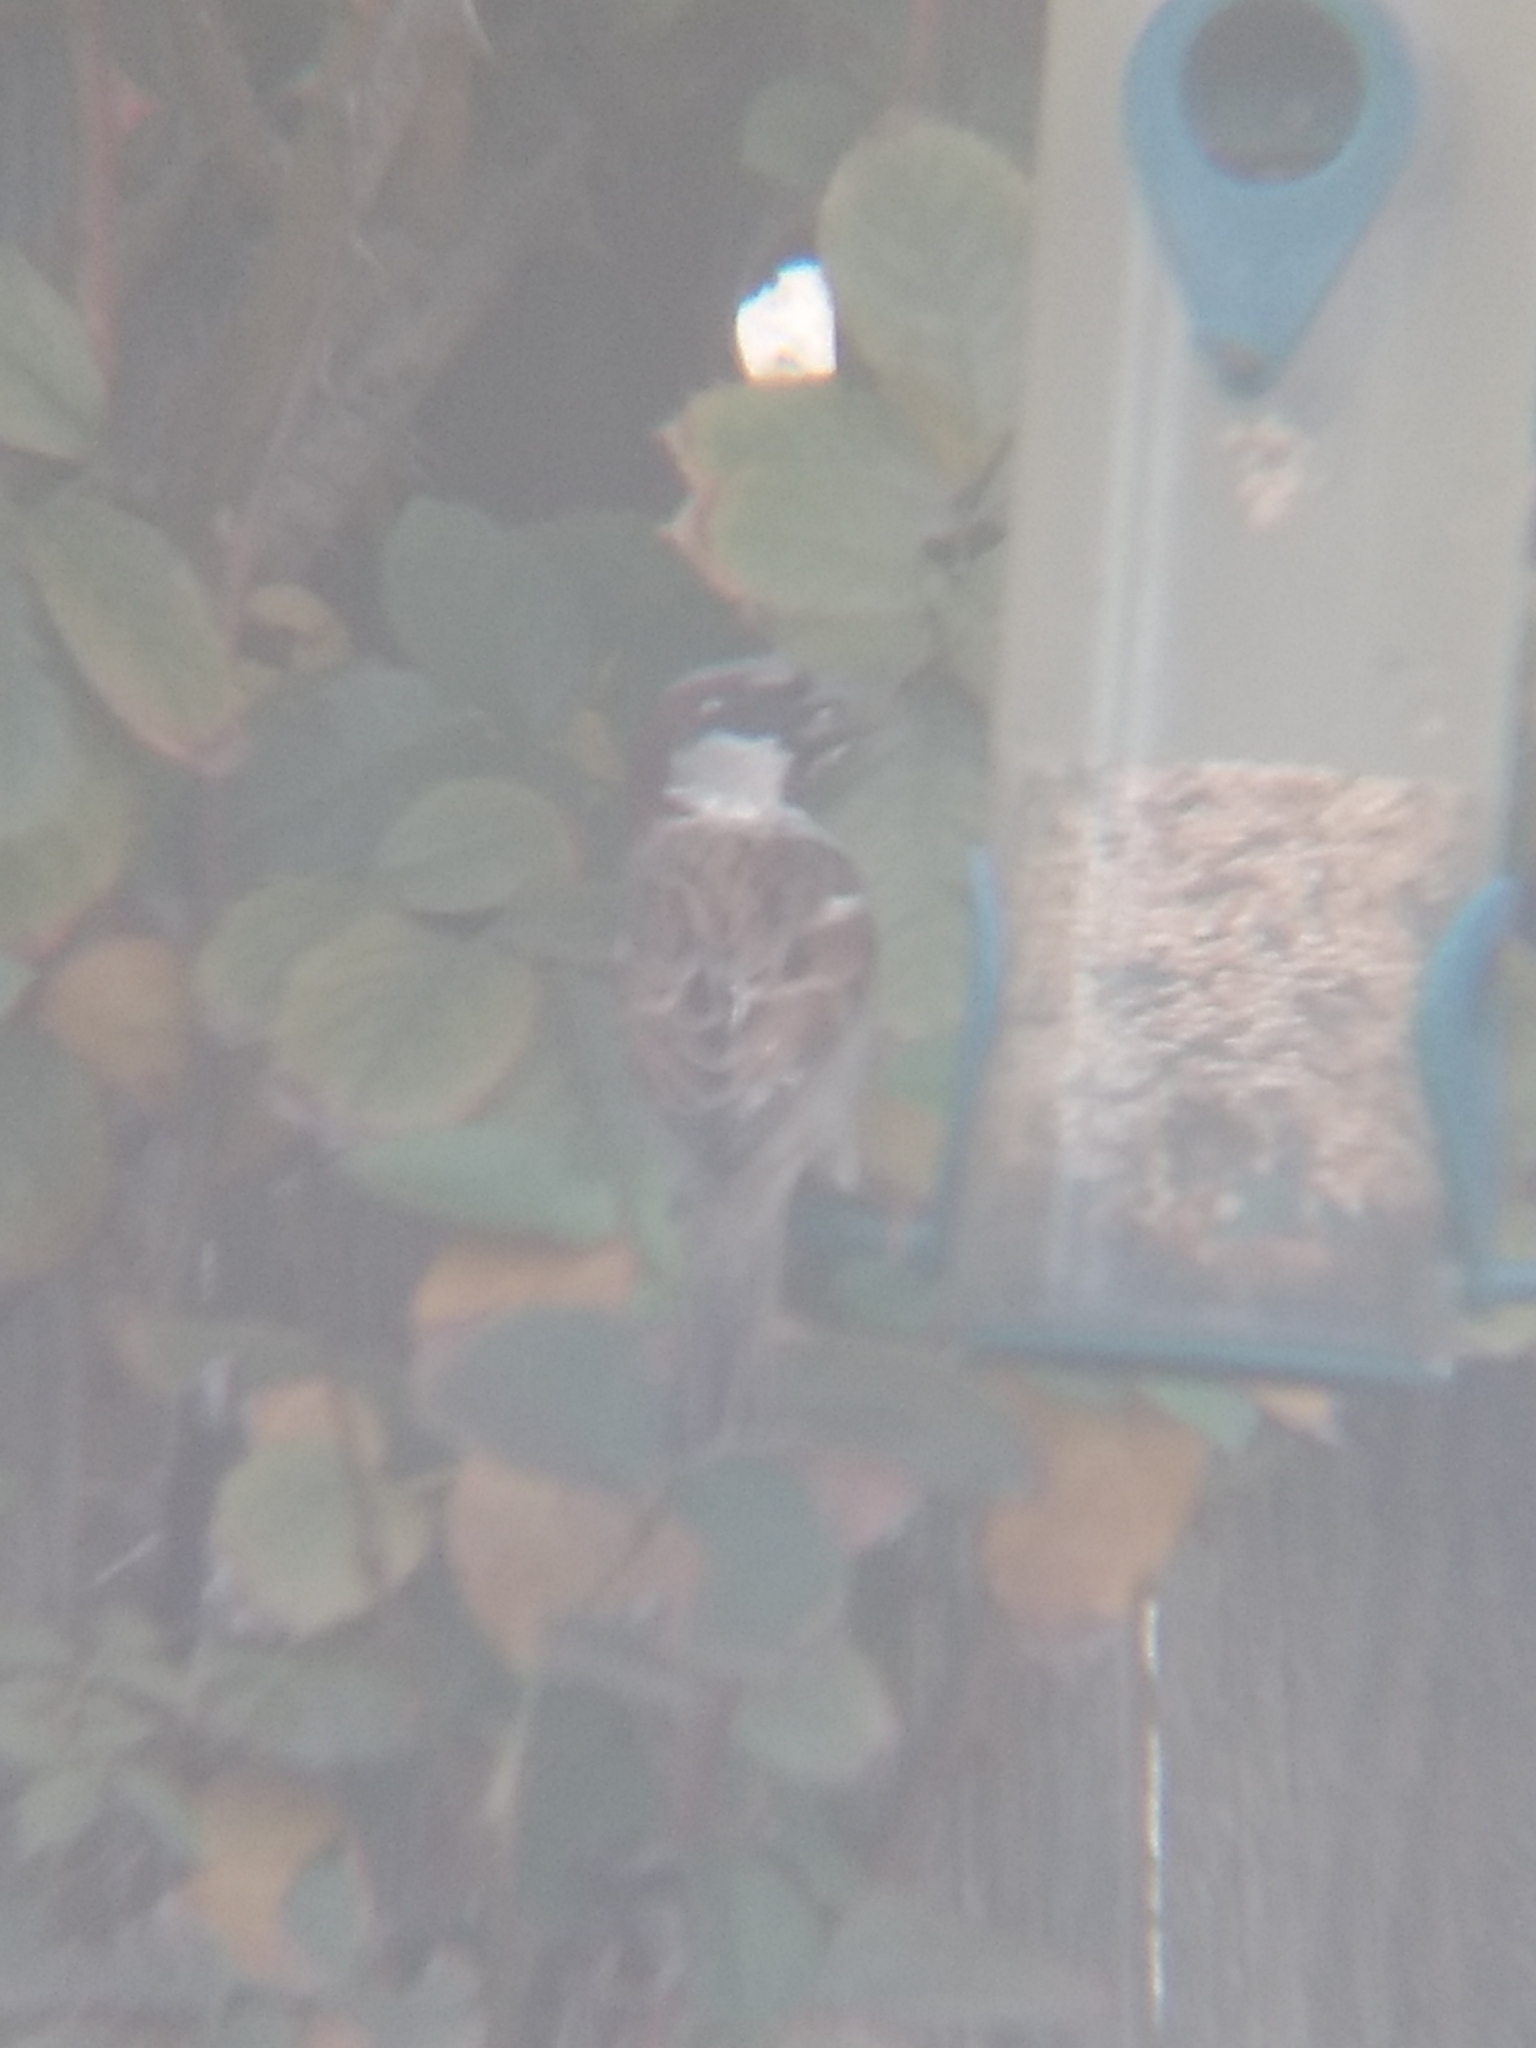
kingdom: Animalia
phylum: Chordata
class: Aves
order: Passeriformes
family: Passeridae
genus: Passer
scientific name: Passer domesticus
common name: House sparrow
